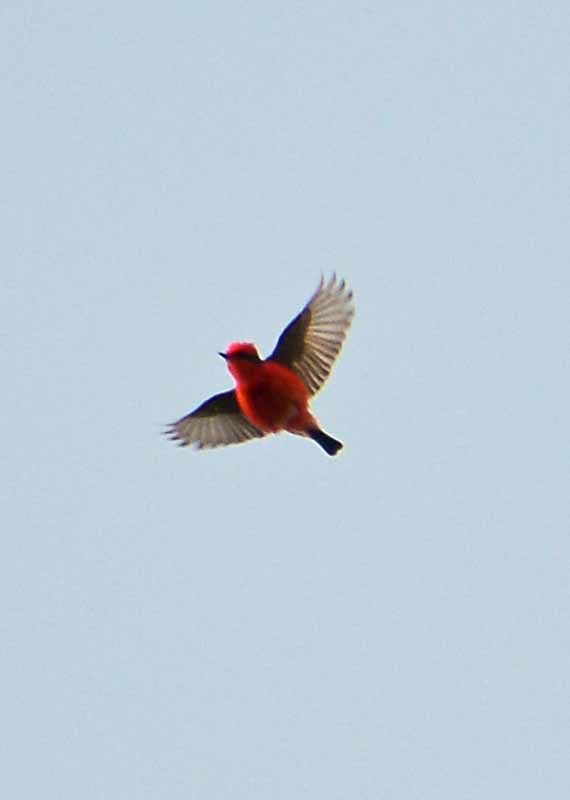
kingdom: Animalia
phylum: Chordata
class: Aves
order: Passeriformes
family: Tyrannidae
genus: Pyrocephalus
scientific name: Pyrocephalus rubinus
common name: Vermilion flycatcher
